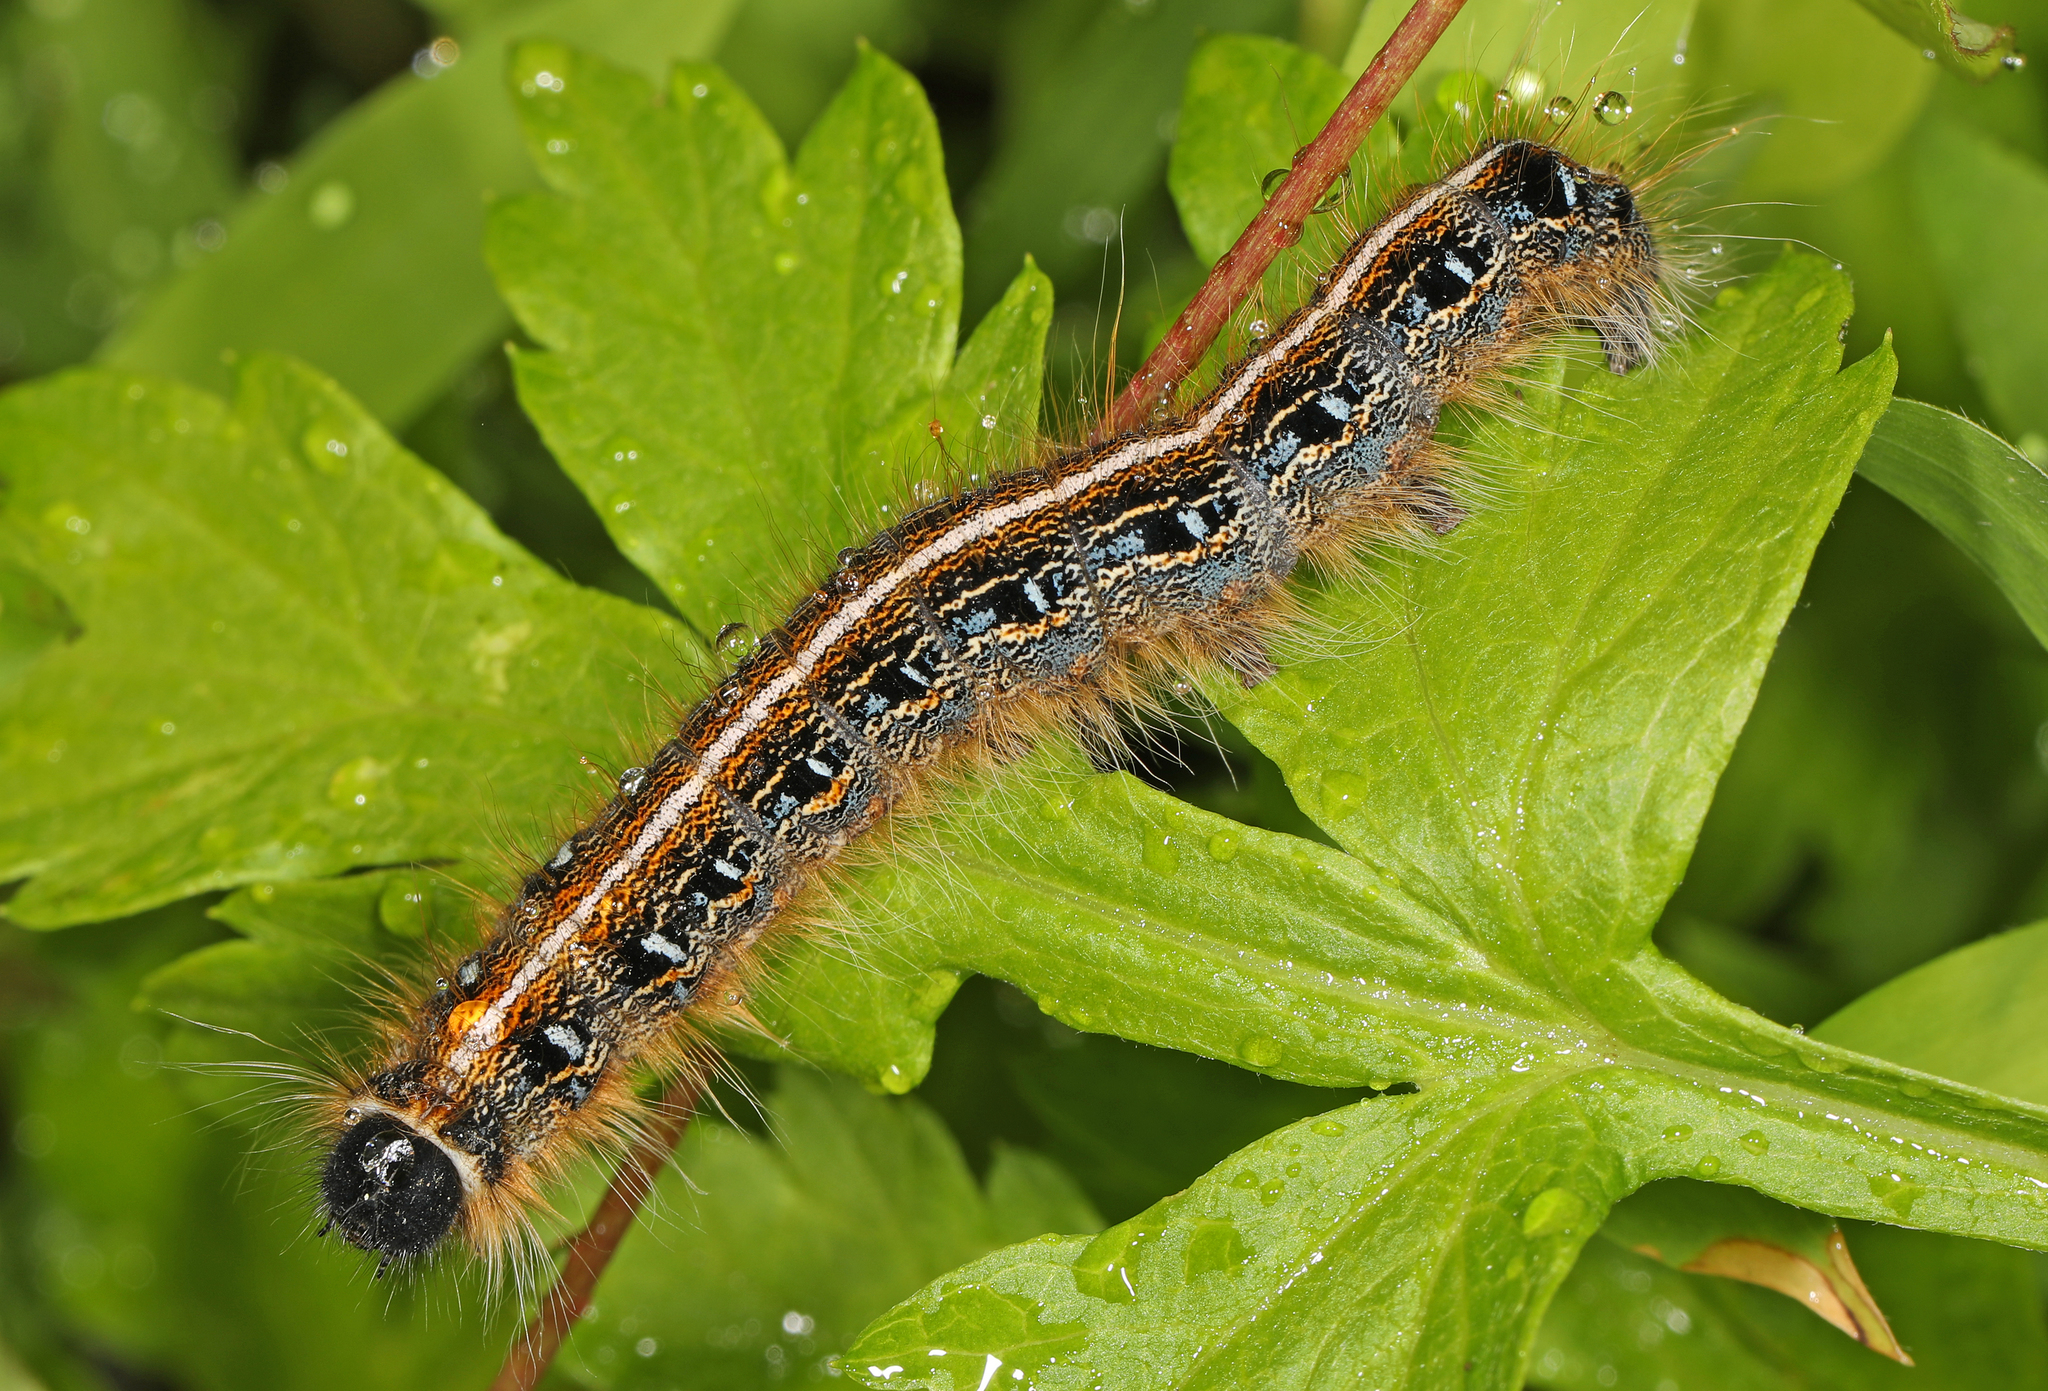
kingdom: Animalia
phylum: Arthropoda
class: Insecta
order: Lepidoptera
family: Lasiocampidae
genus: Malacosoma
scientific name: Malacosoma americana
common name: Eastern tent caterpillar moth
